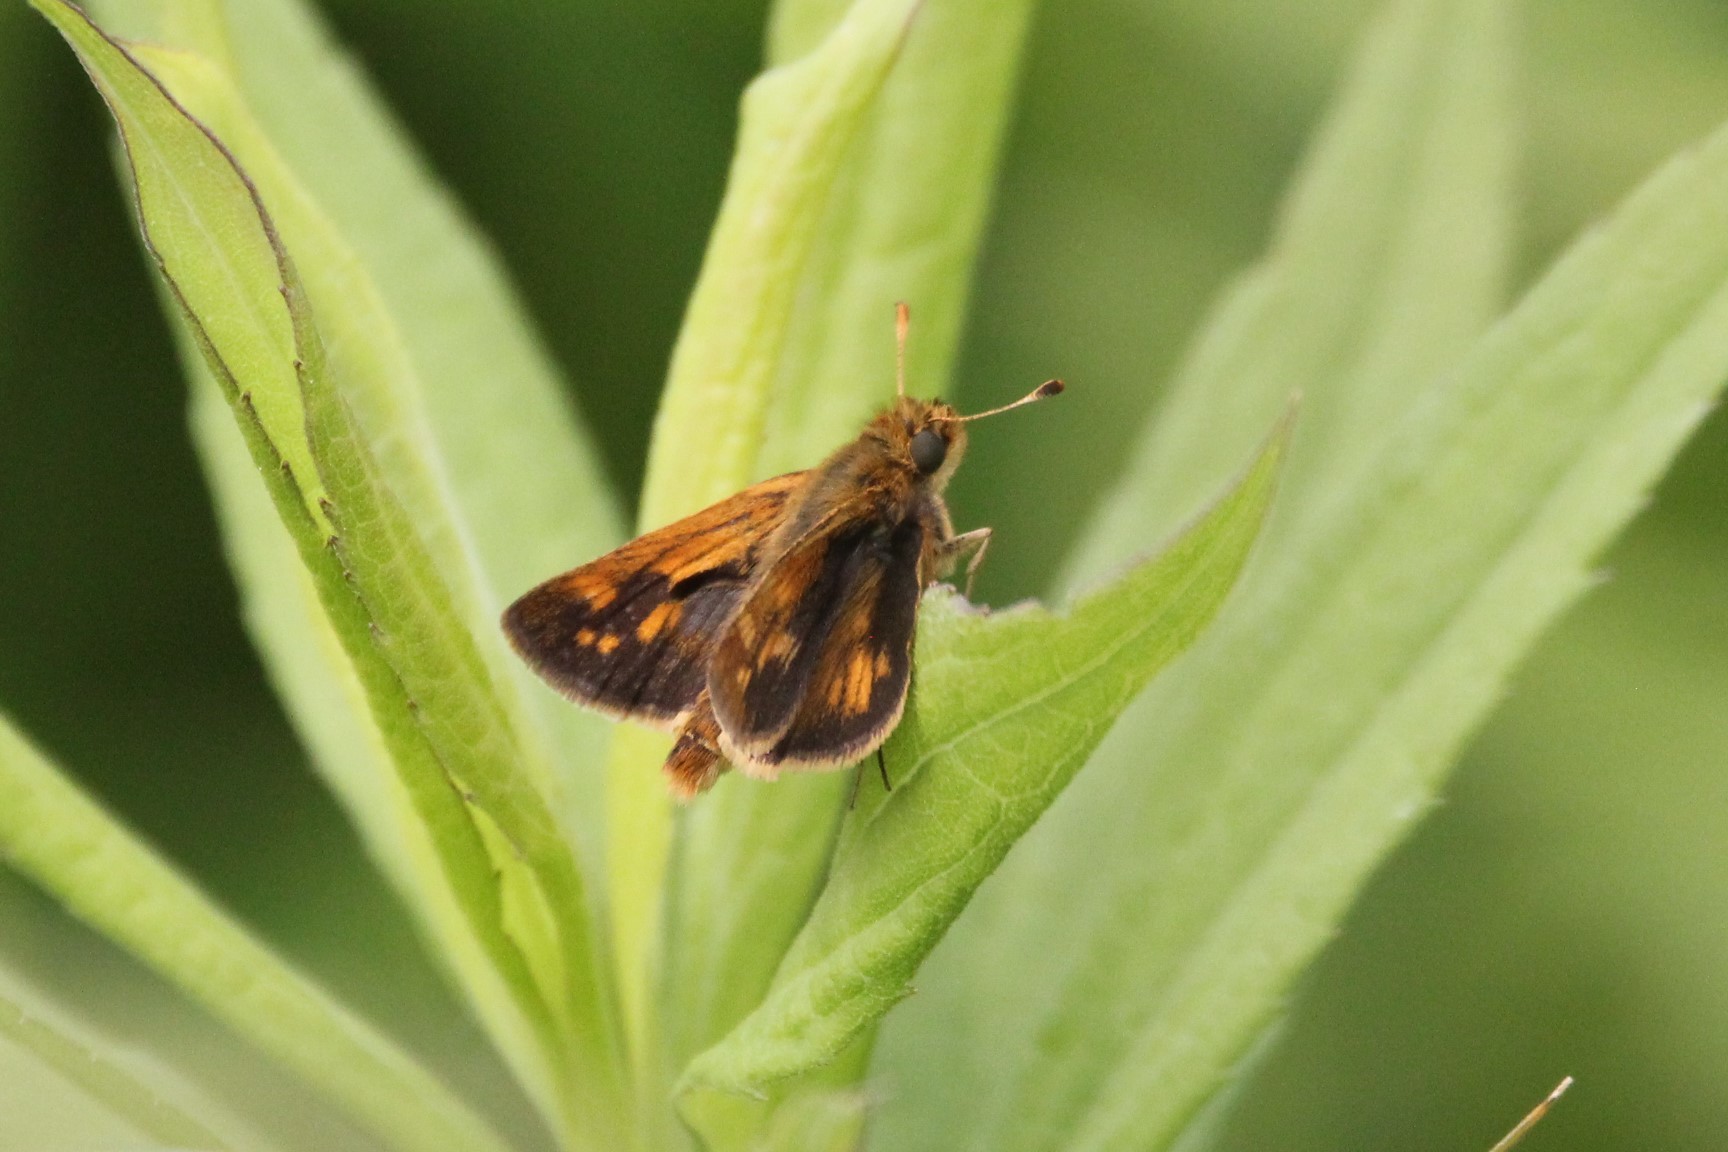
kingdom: Animalia
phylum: Arthropoda
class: Insecta
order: Lepidoptera
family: Hesperiidae
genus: Polites
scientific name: Polites coras
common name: Peck's skipper
